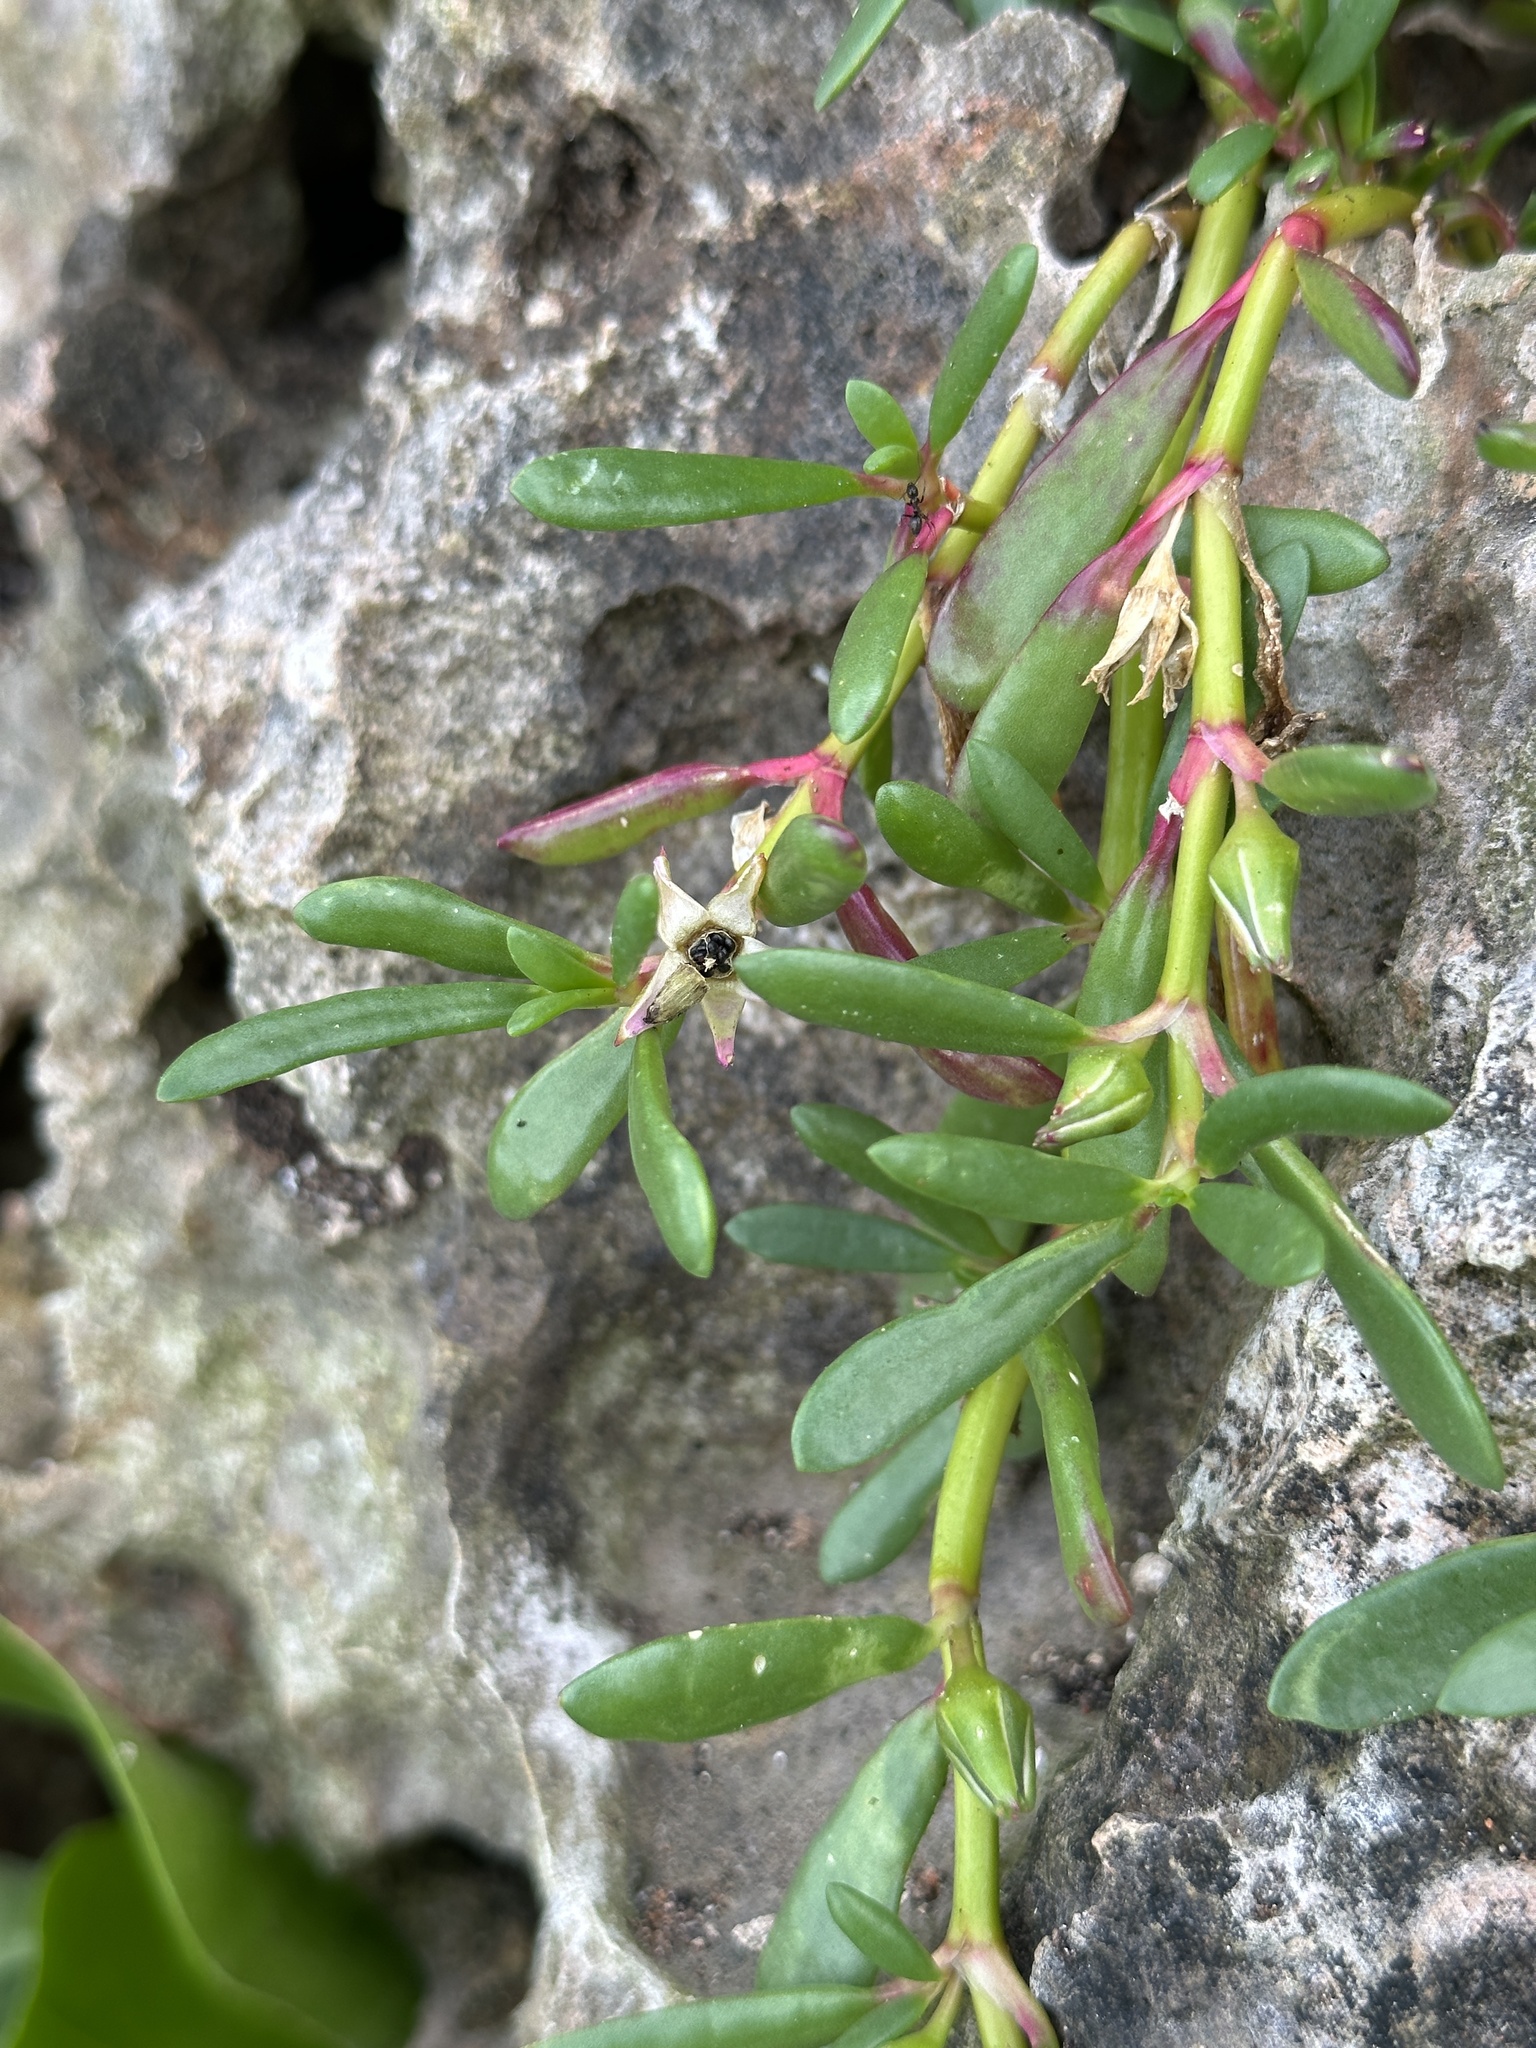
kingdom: Plantae
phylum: Tracheophyta
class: Magnoliopsida
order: Caryophyllales
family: Aizoaceae
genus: Sesuvium
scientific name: Sesuvium portulacastrum
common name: Sea-purslane
